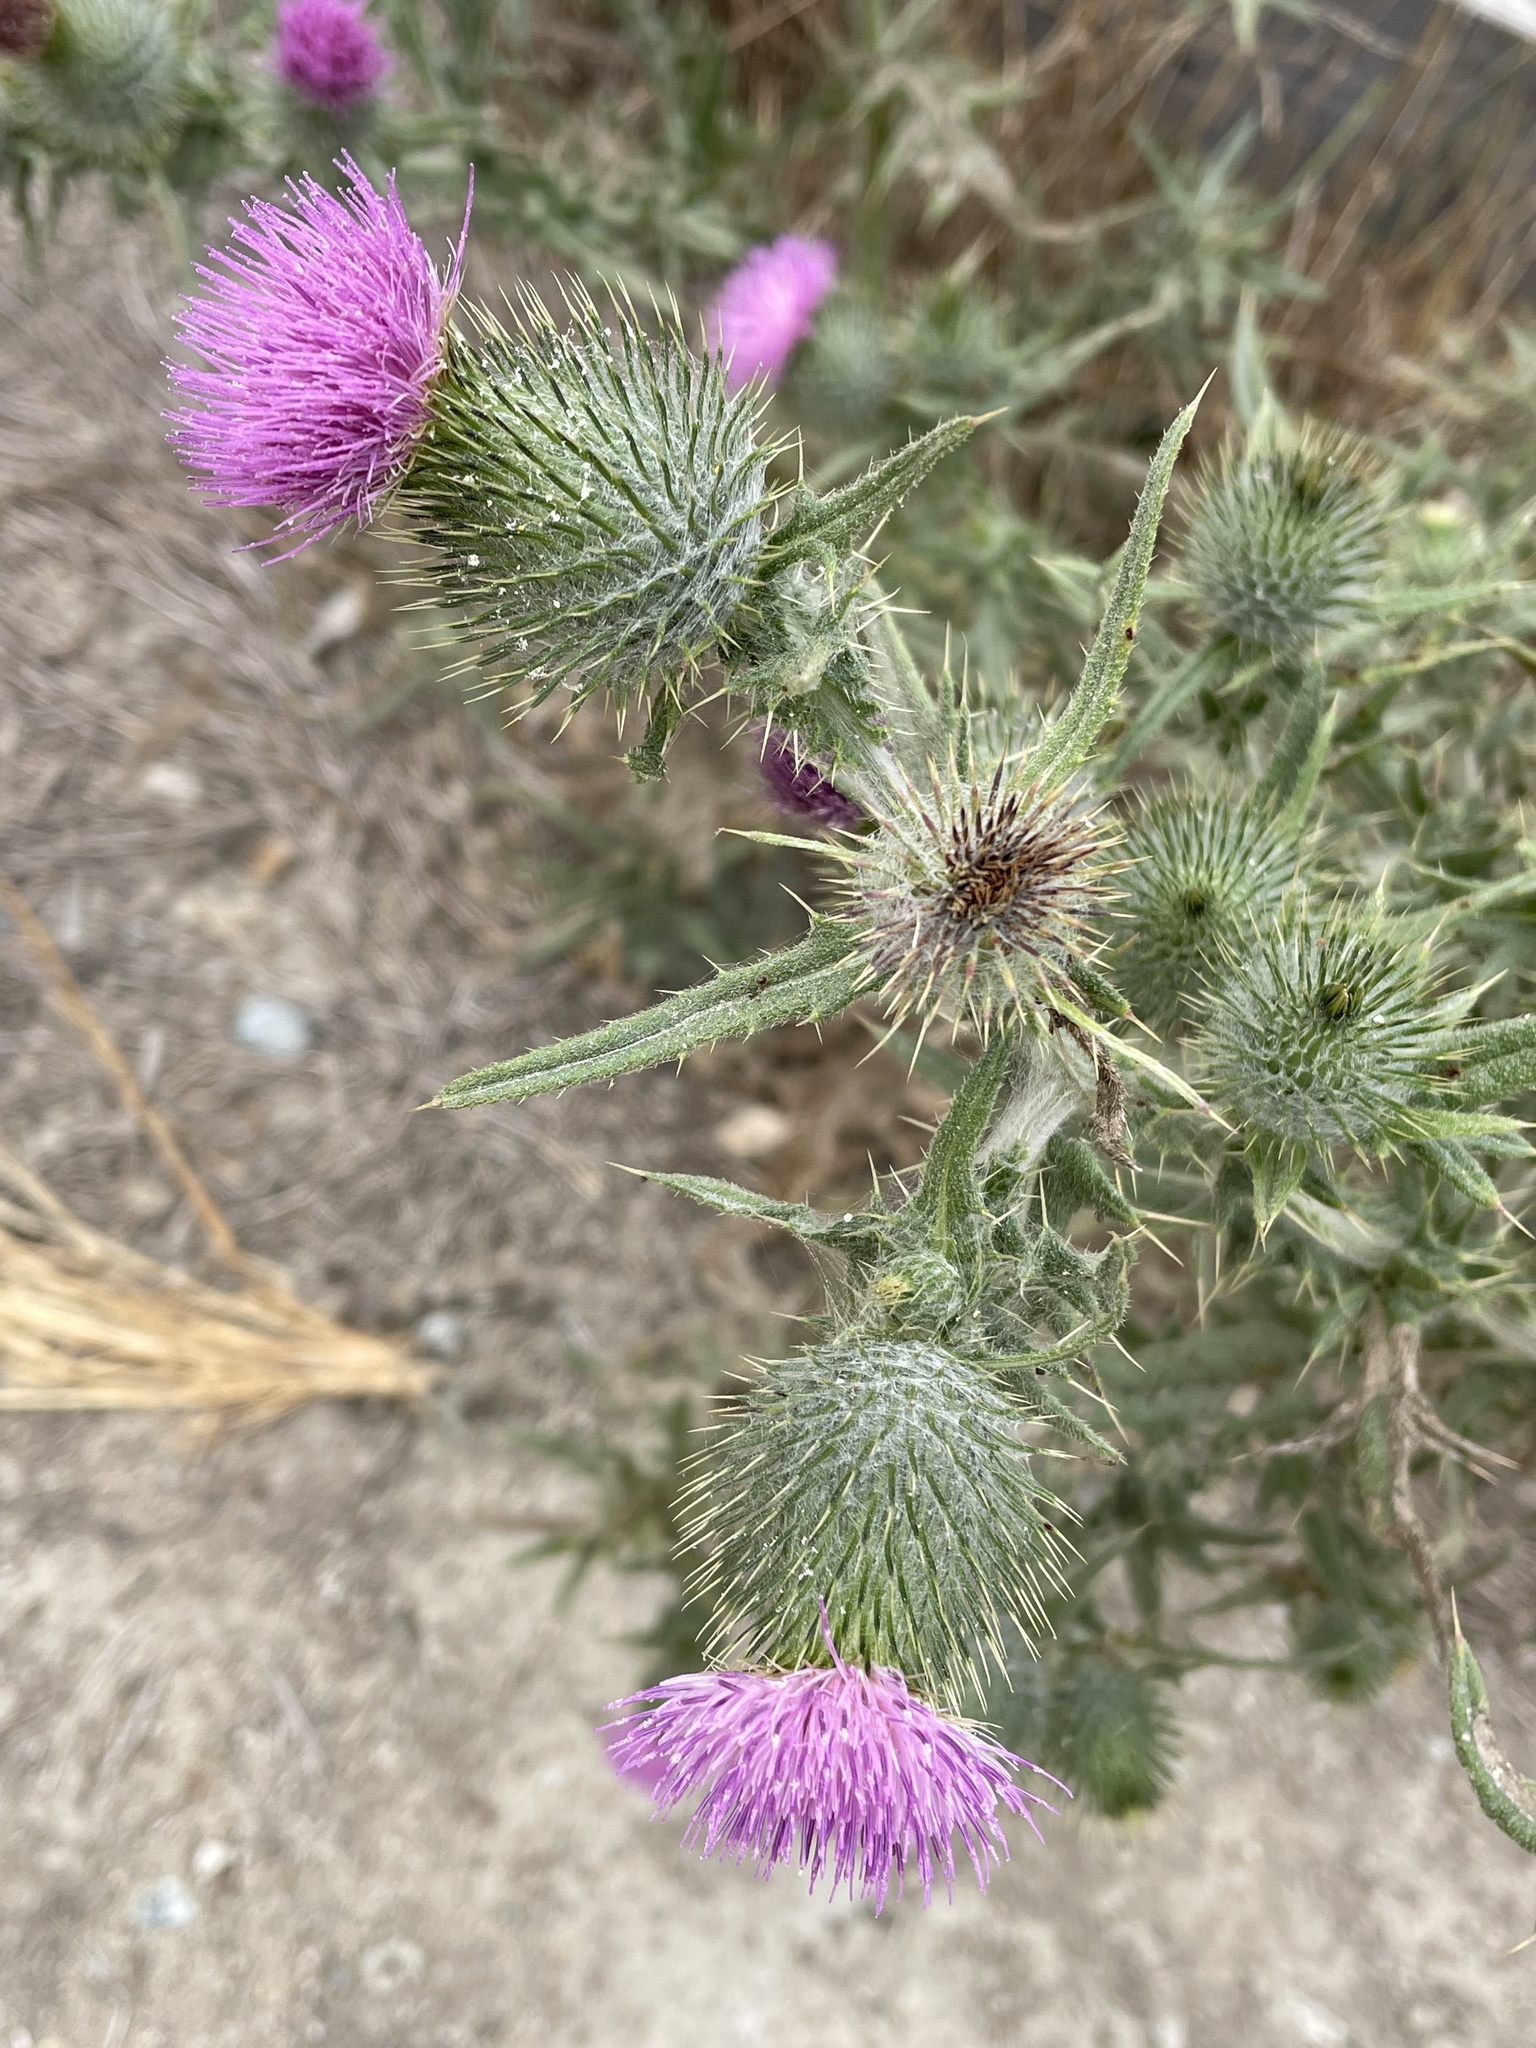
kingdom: Plantae
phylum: Tracheophyta
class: Magnoliopsida
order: Asterales
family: Asteraceae
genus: Cirsium
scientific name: Cirsium vulgare
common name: Bull thistle
